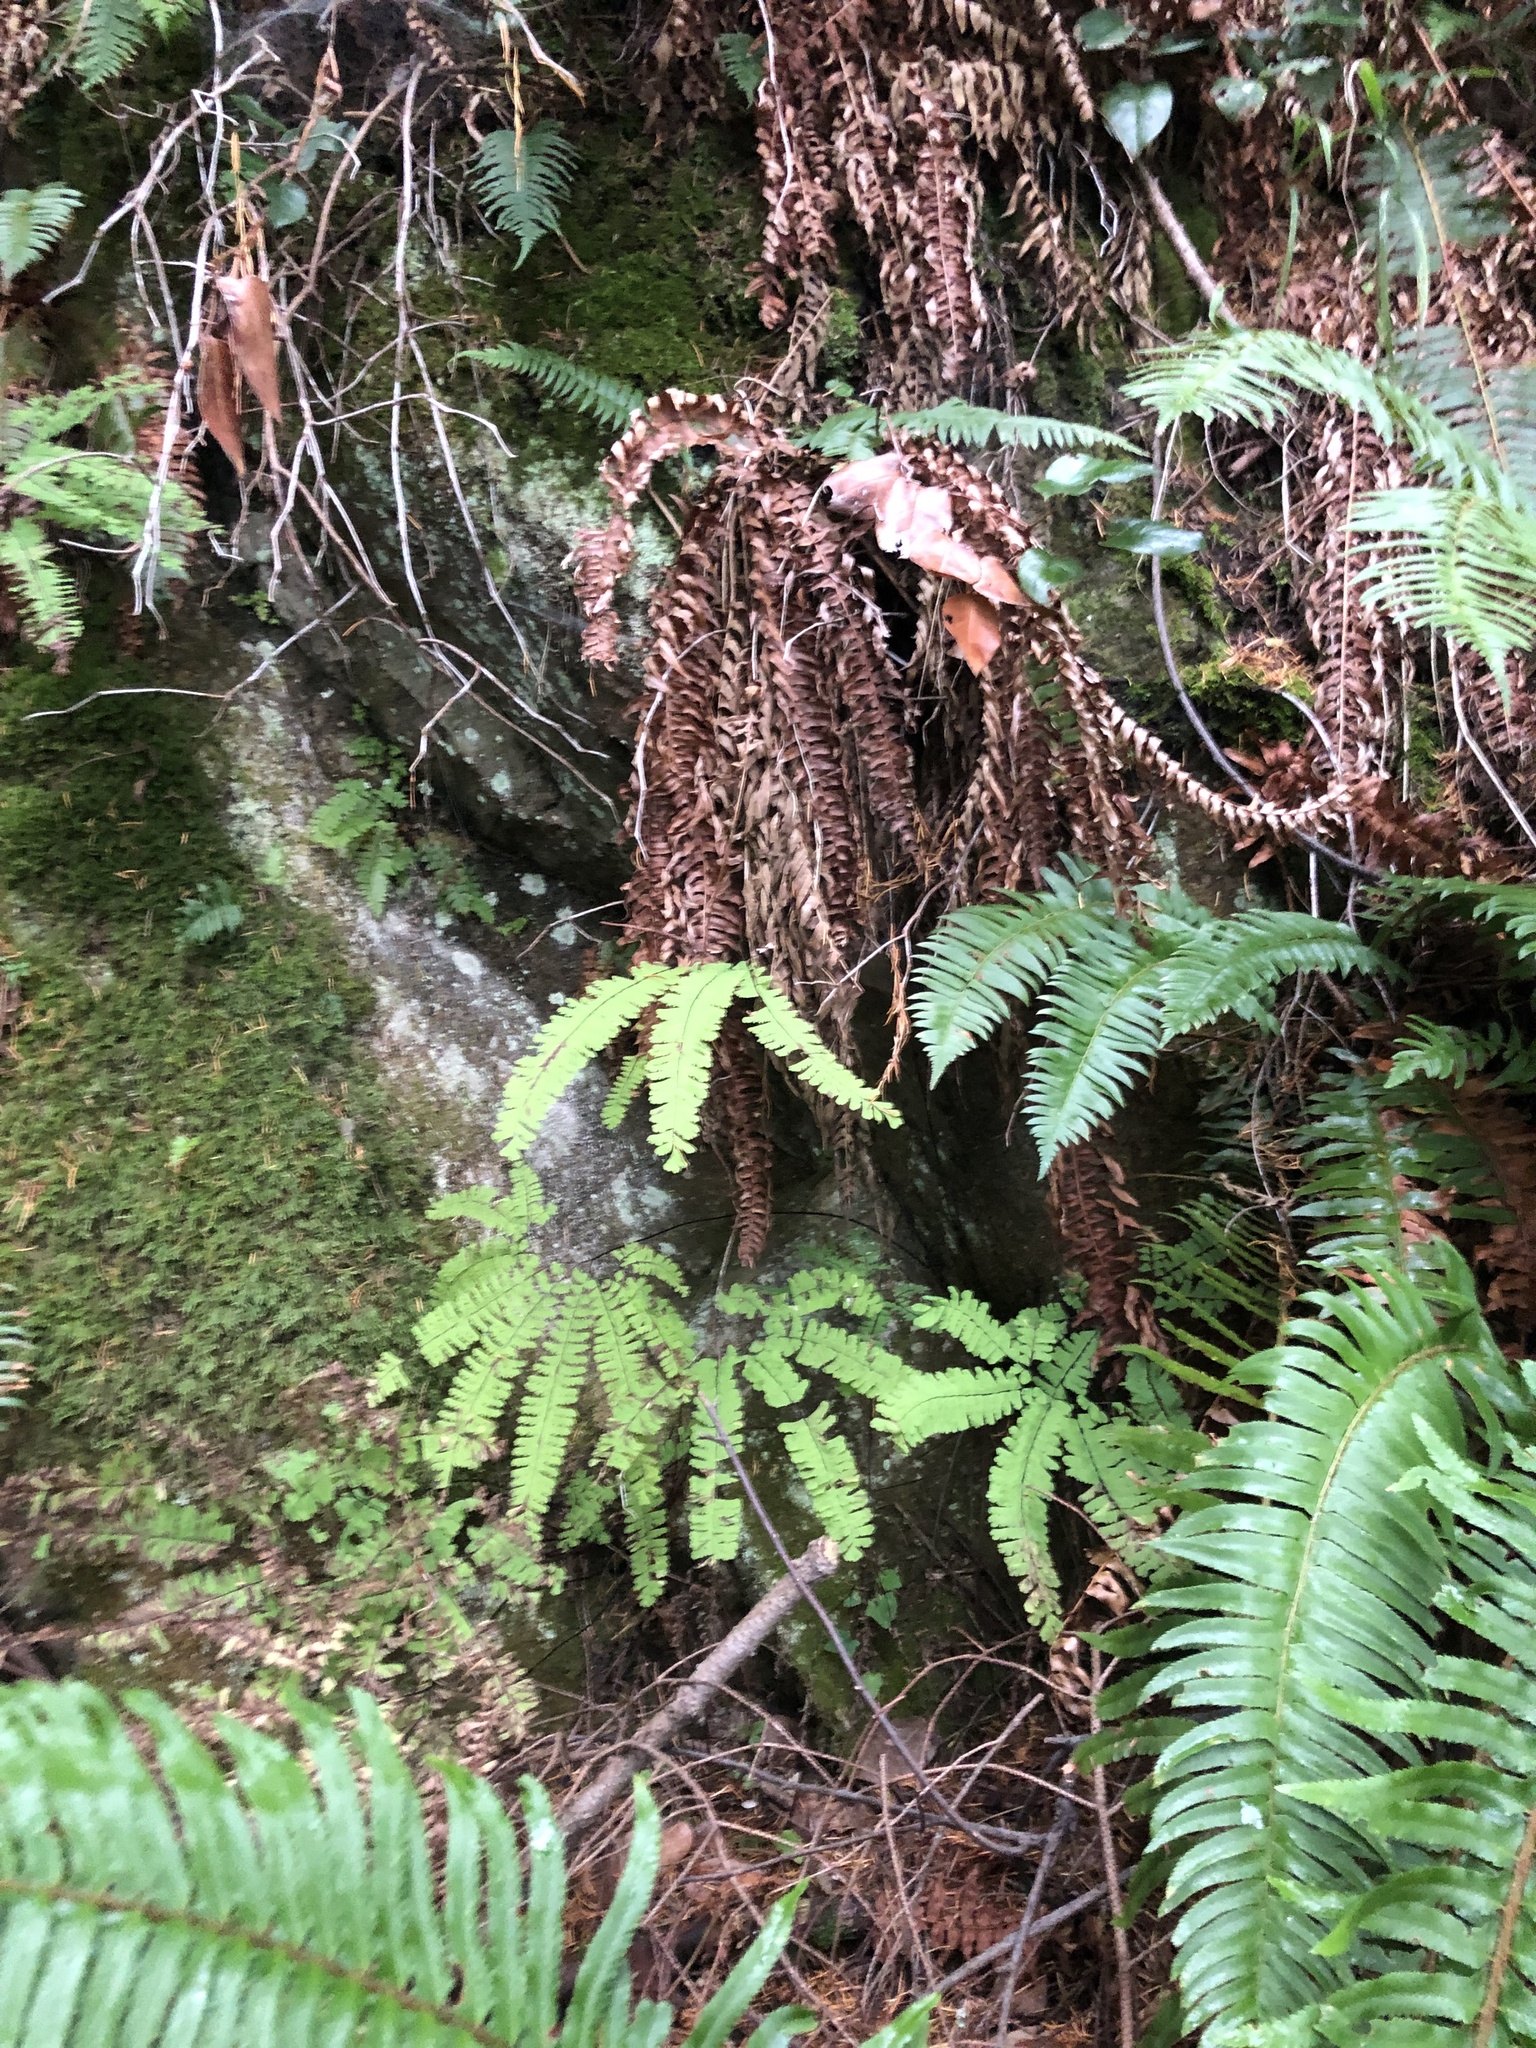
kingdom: Plantae
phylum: Tracheophyta
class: Polypodiopsida
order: Polypodiales
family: Dryopteridaceae
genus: Polystichum
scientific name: Polystichum munitum
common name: Western sword-fern
